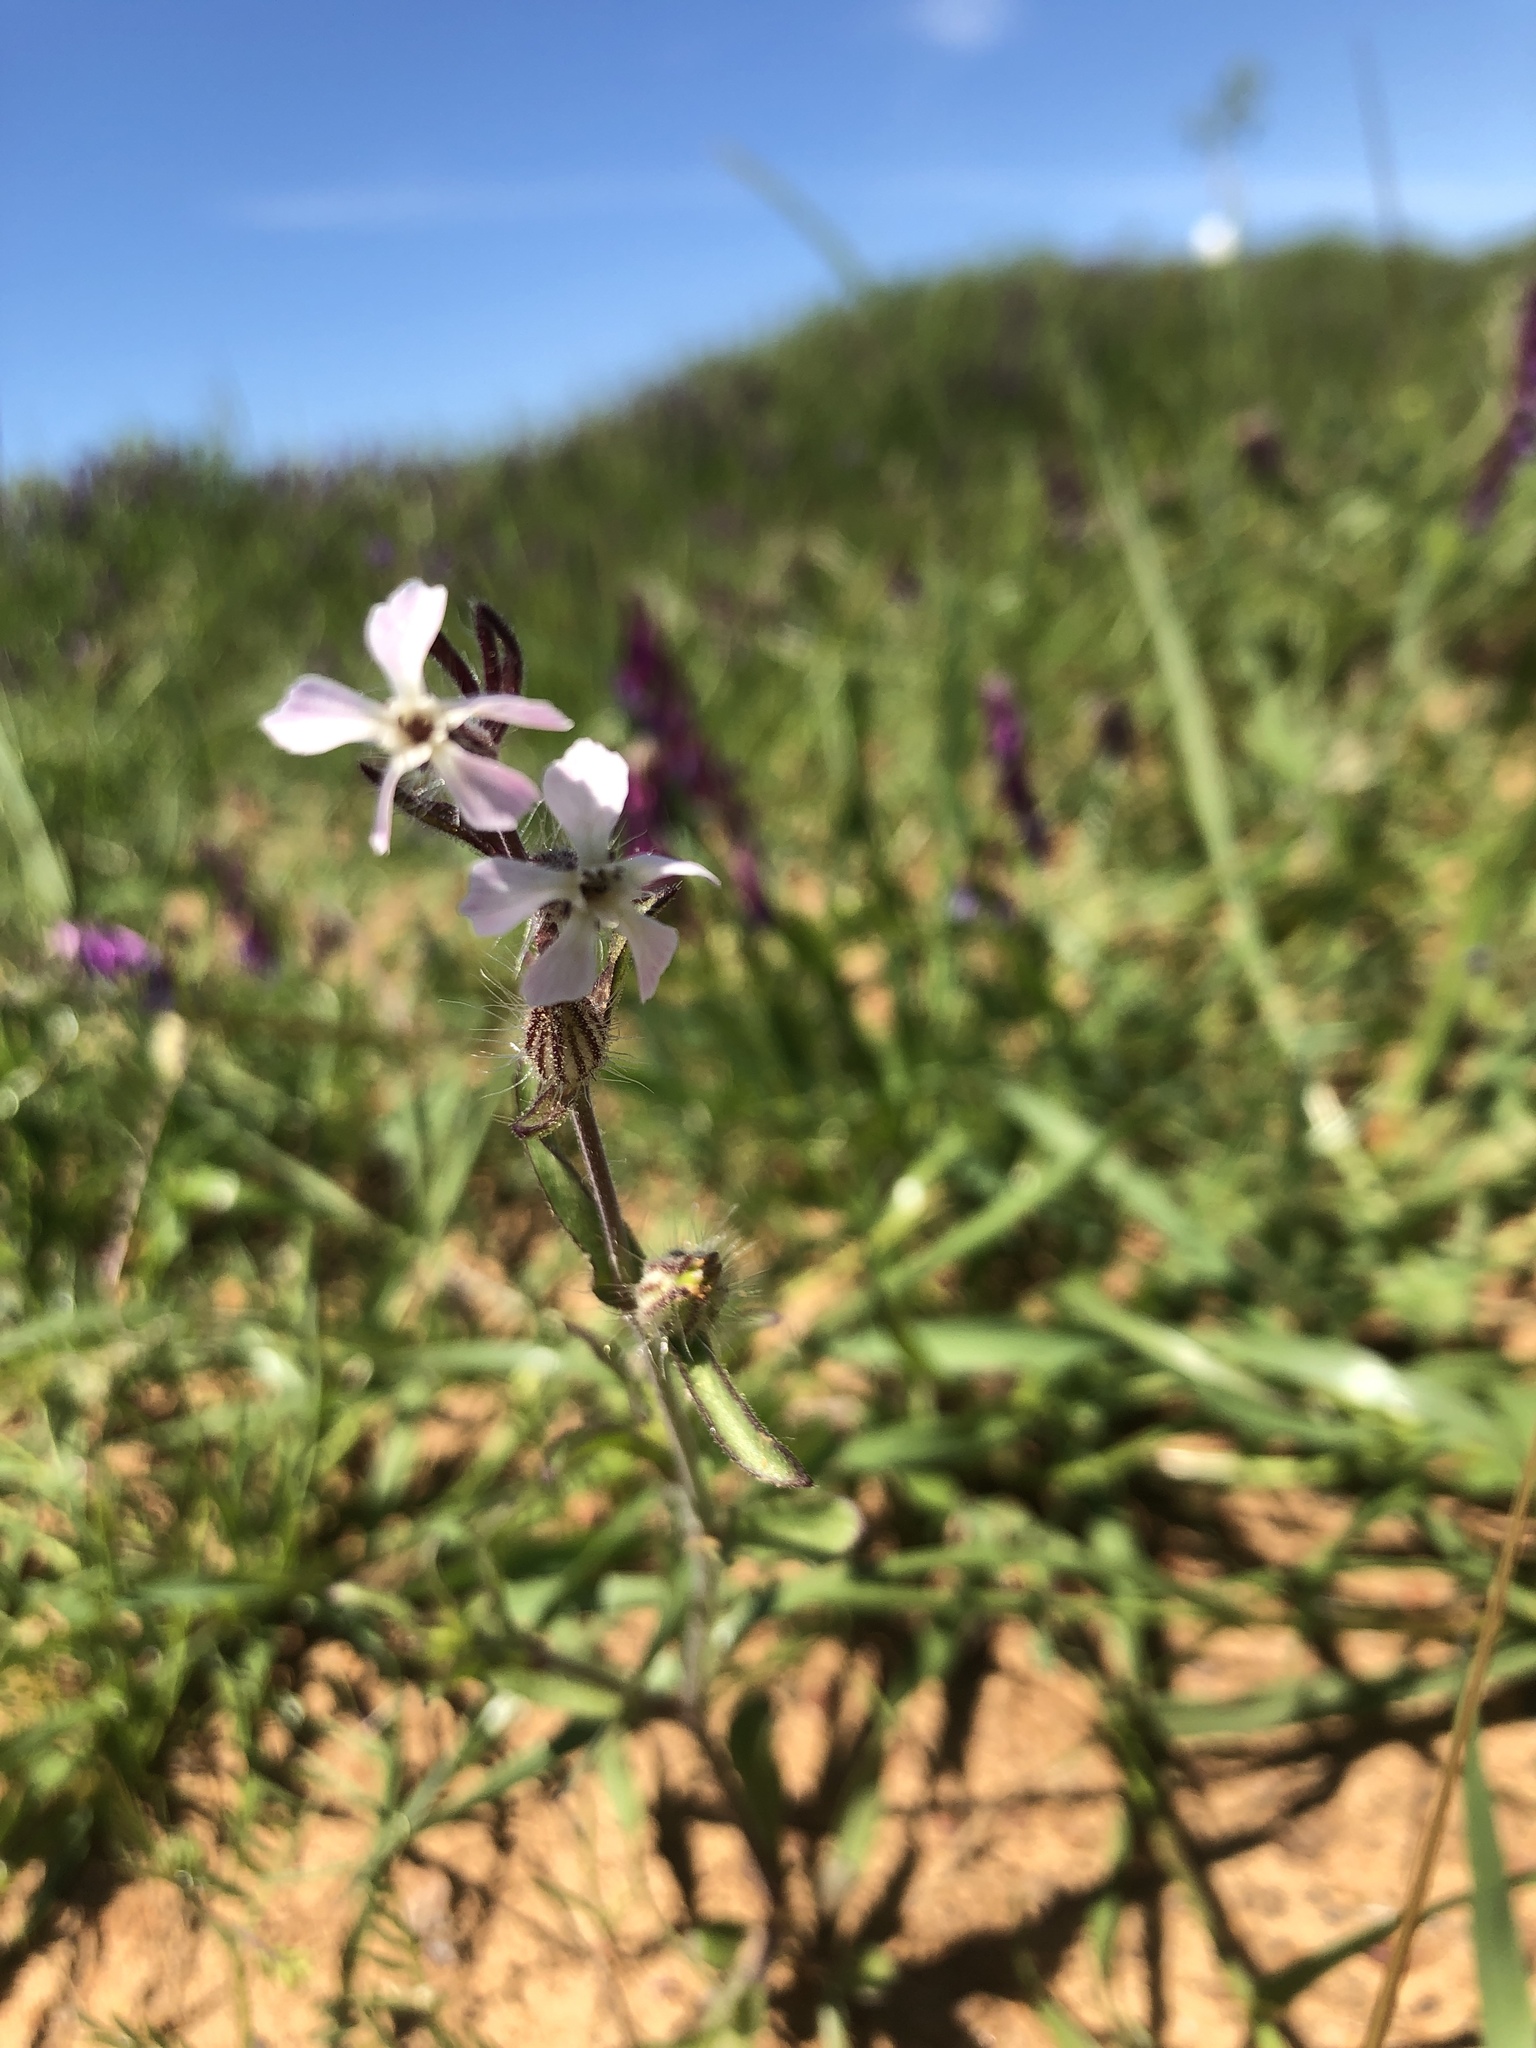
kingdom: Plantae
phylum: Tracheophyta
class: Magnoliopsida
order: Caryophyllales
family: Caryophyllaceae
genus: Silene
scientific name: Silene gallica
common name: Small-flowered catchfly
